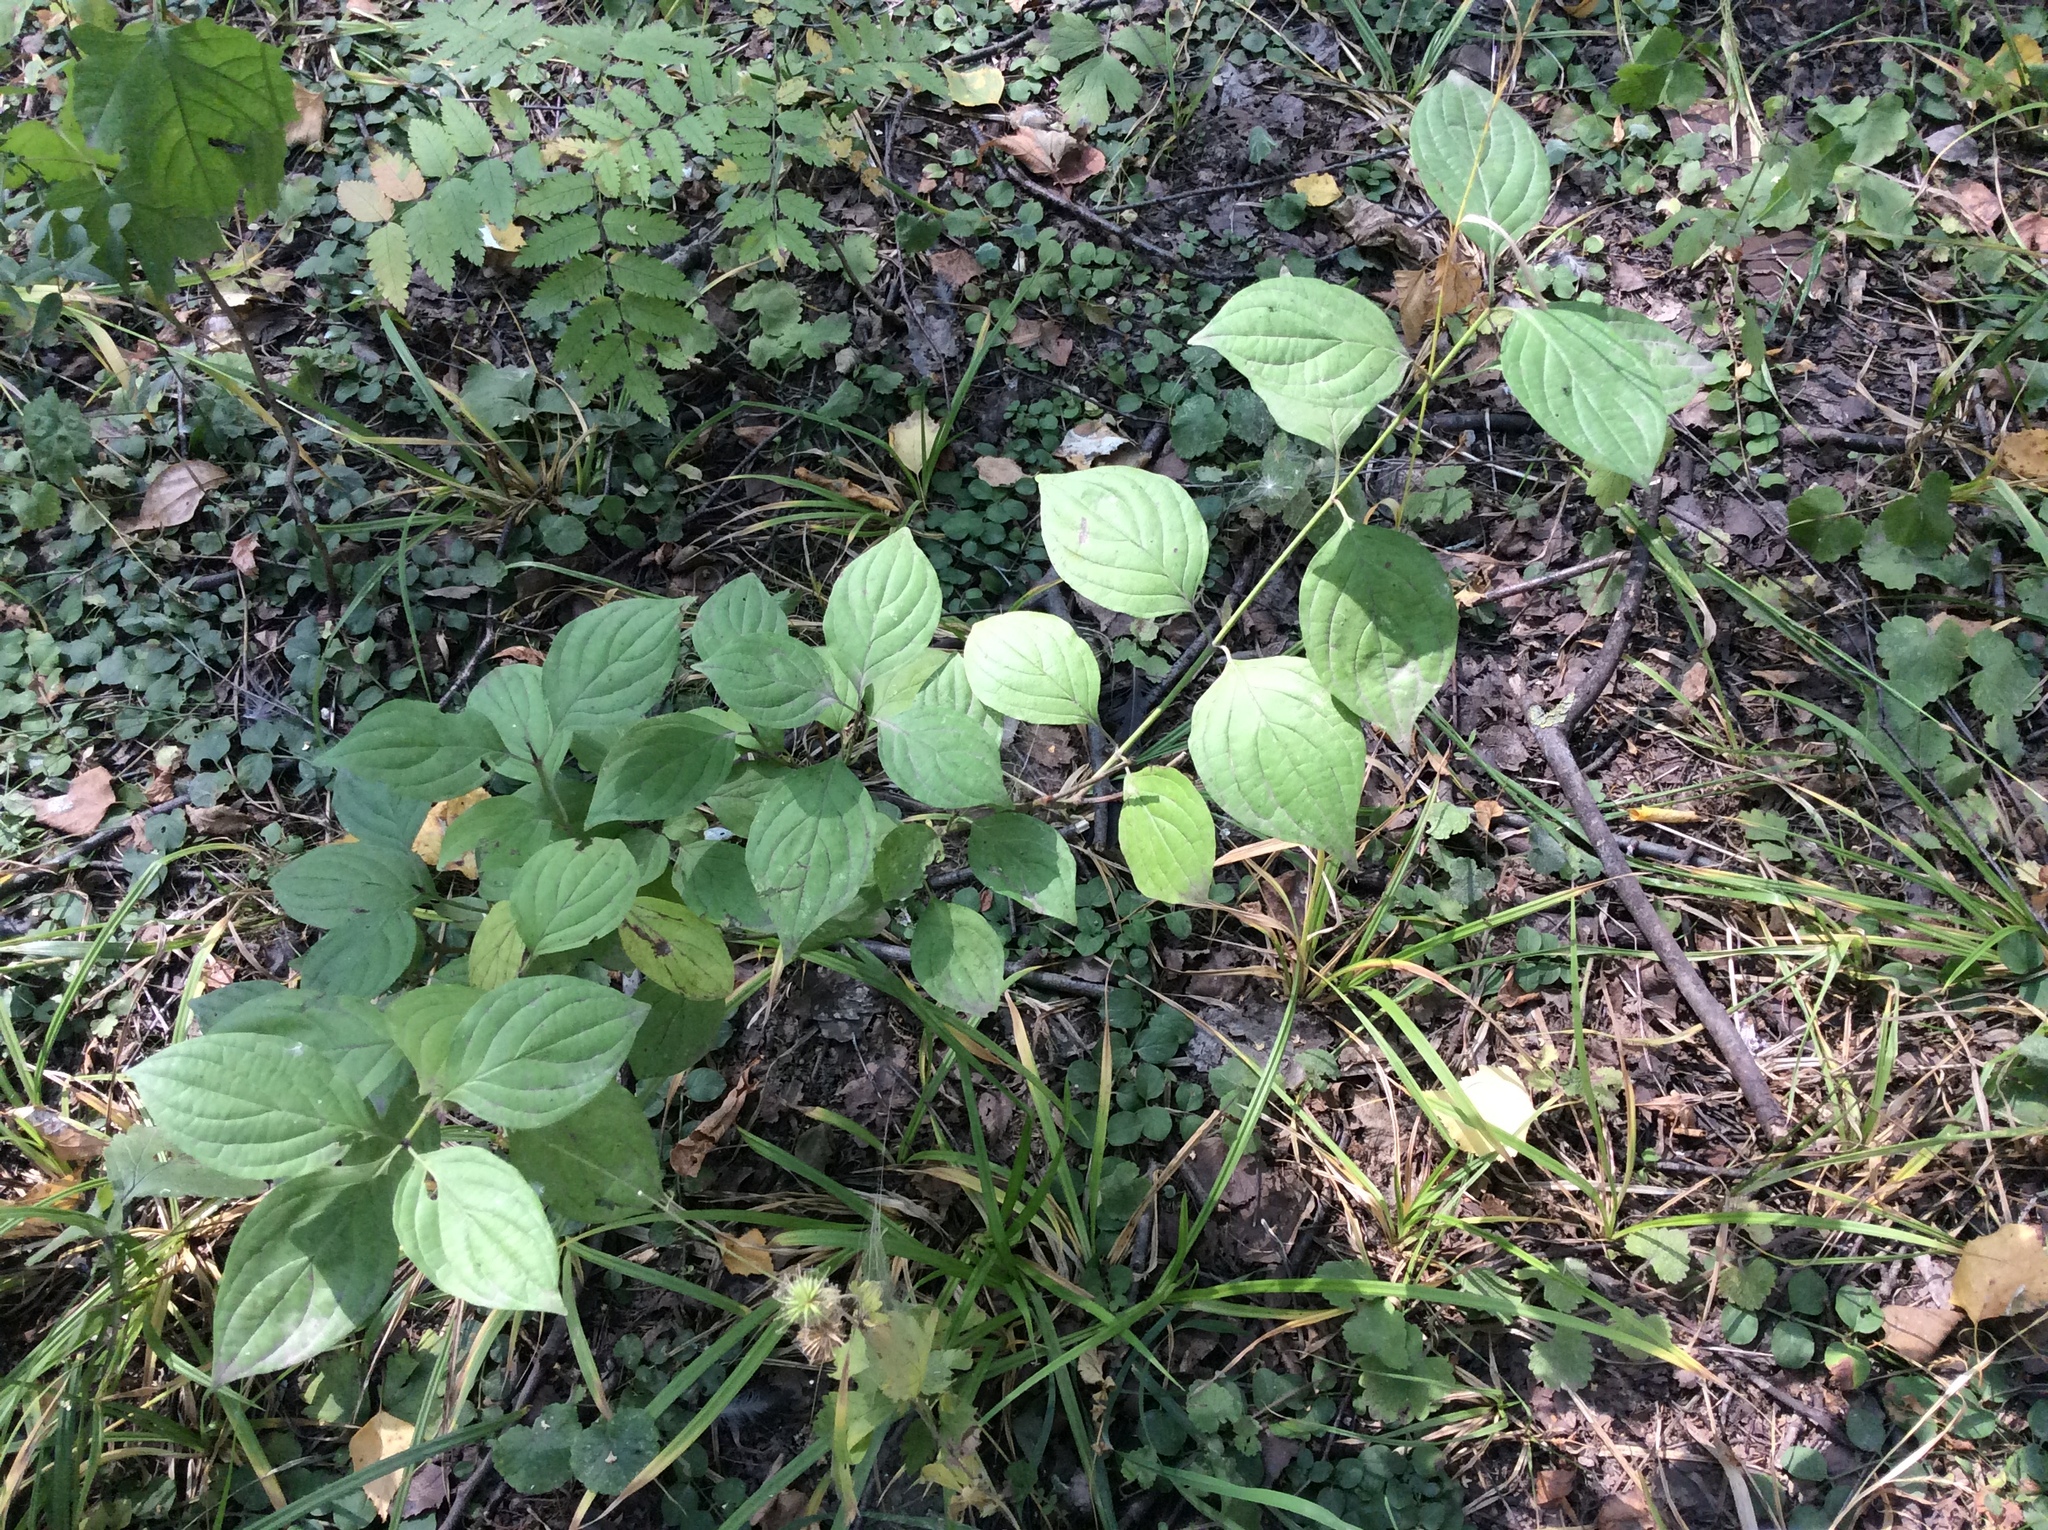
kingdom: Plantae
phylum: Tracheophyta
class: Magnoliopsida
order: Cornales
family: Cornaceae
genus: Cornus
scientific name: Cornus sanguinea
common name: Dogwood
